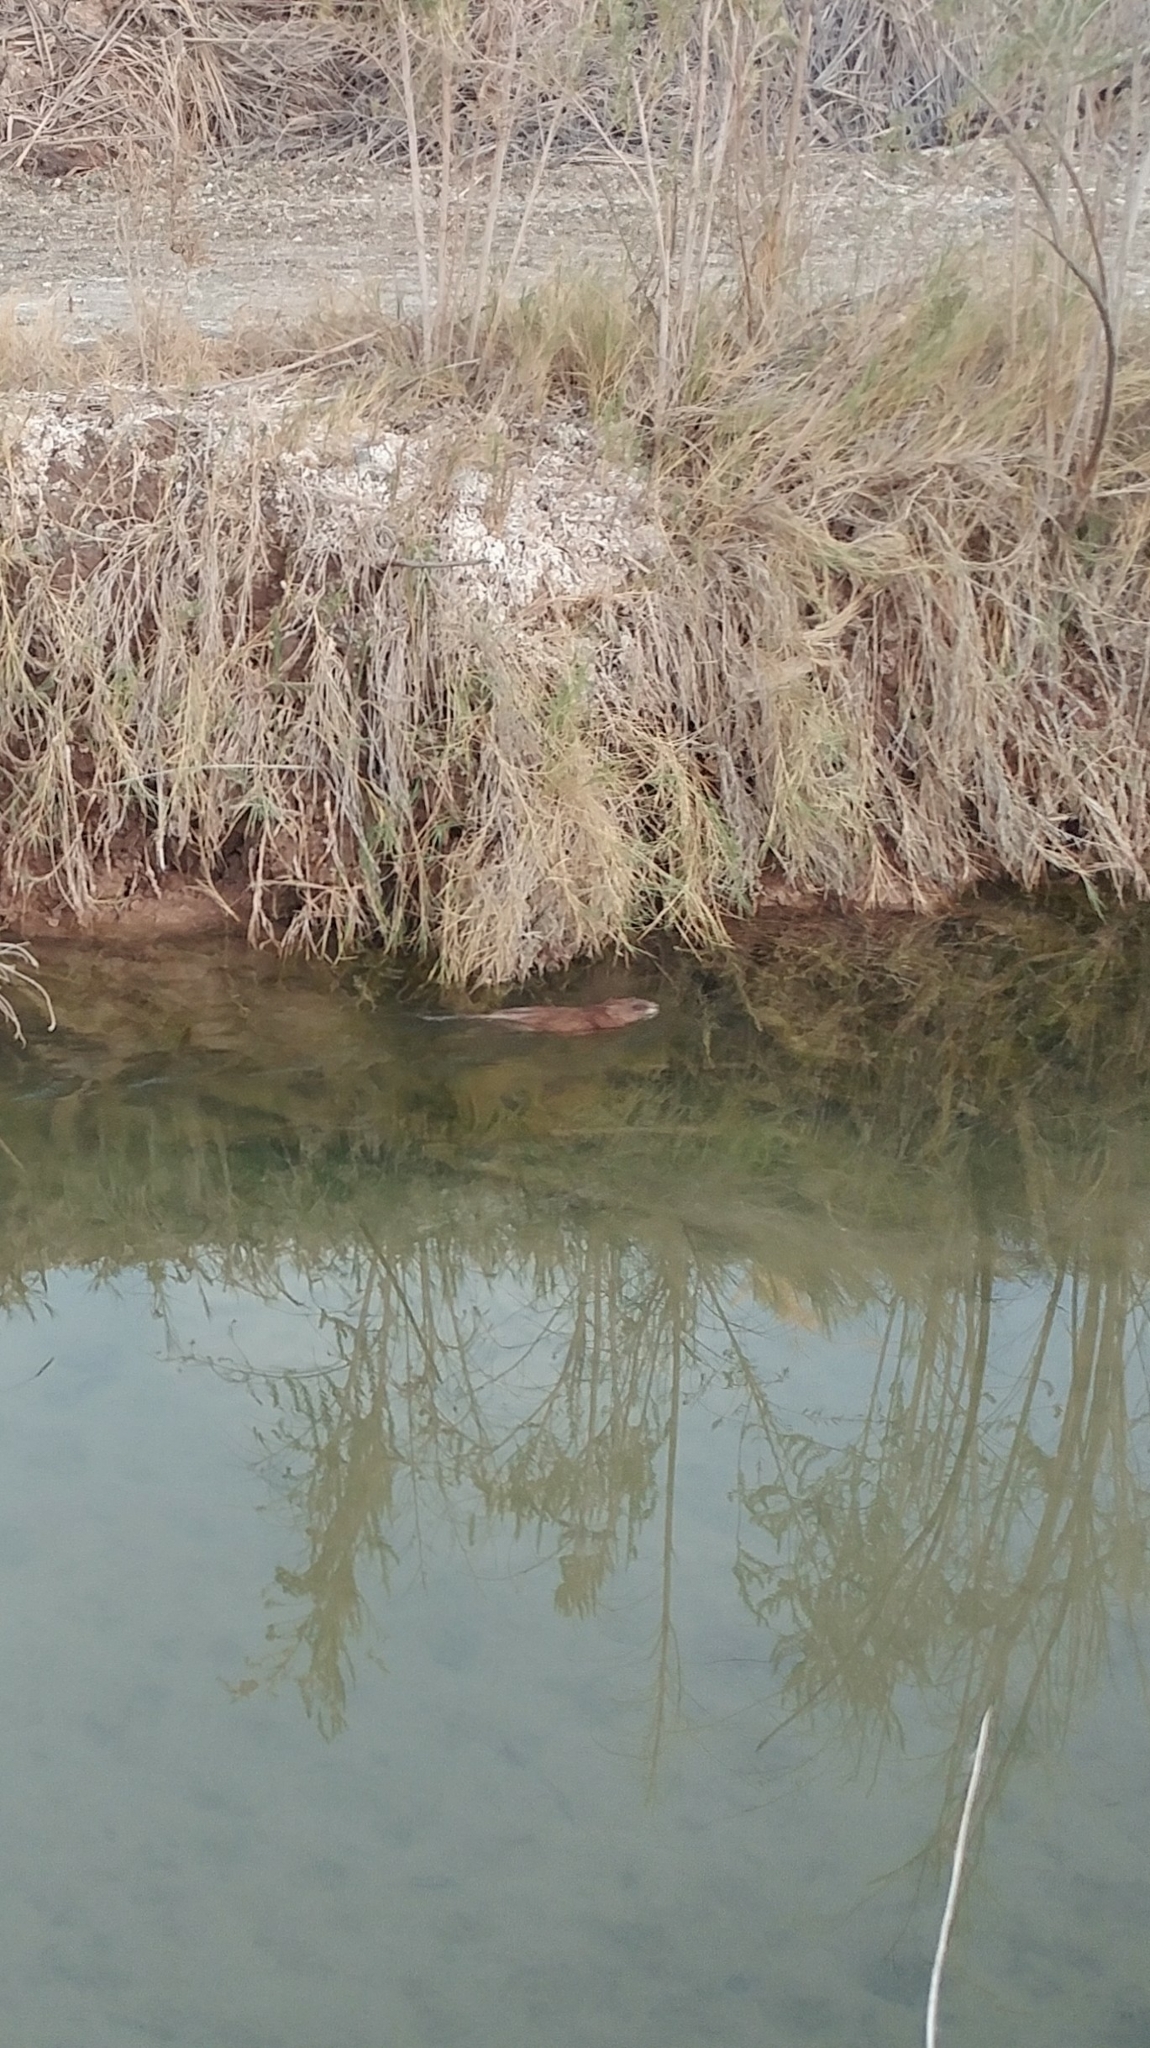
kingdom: Animalia
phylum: Chordata
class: Mammalia
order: Rodentia
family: Cricetidae
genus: Ondatra
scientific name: Ondatra zibethicus
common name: Muskrat
